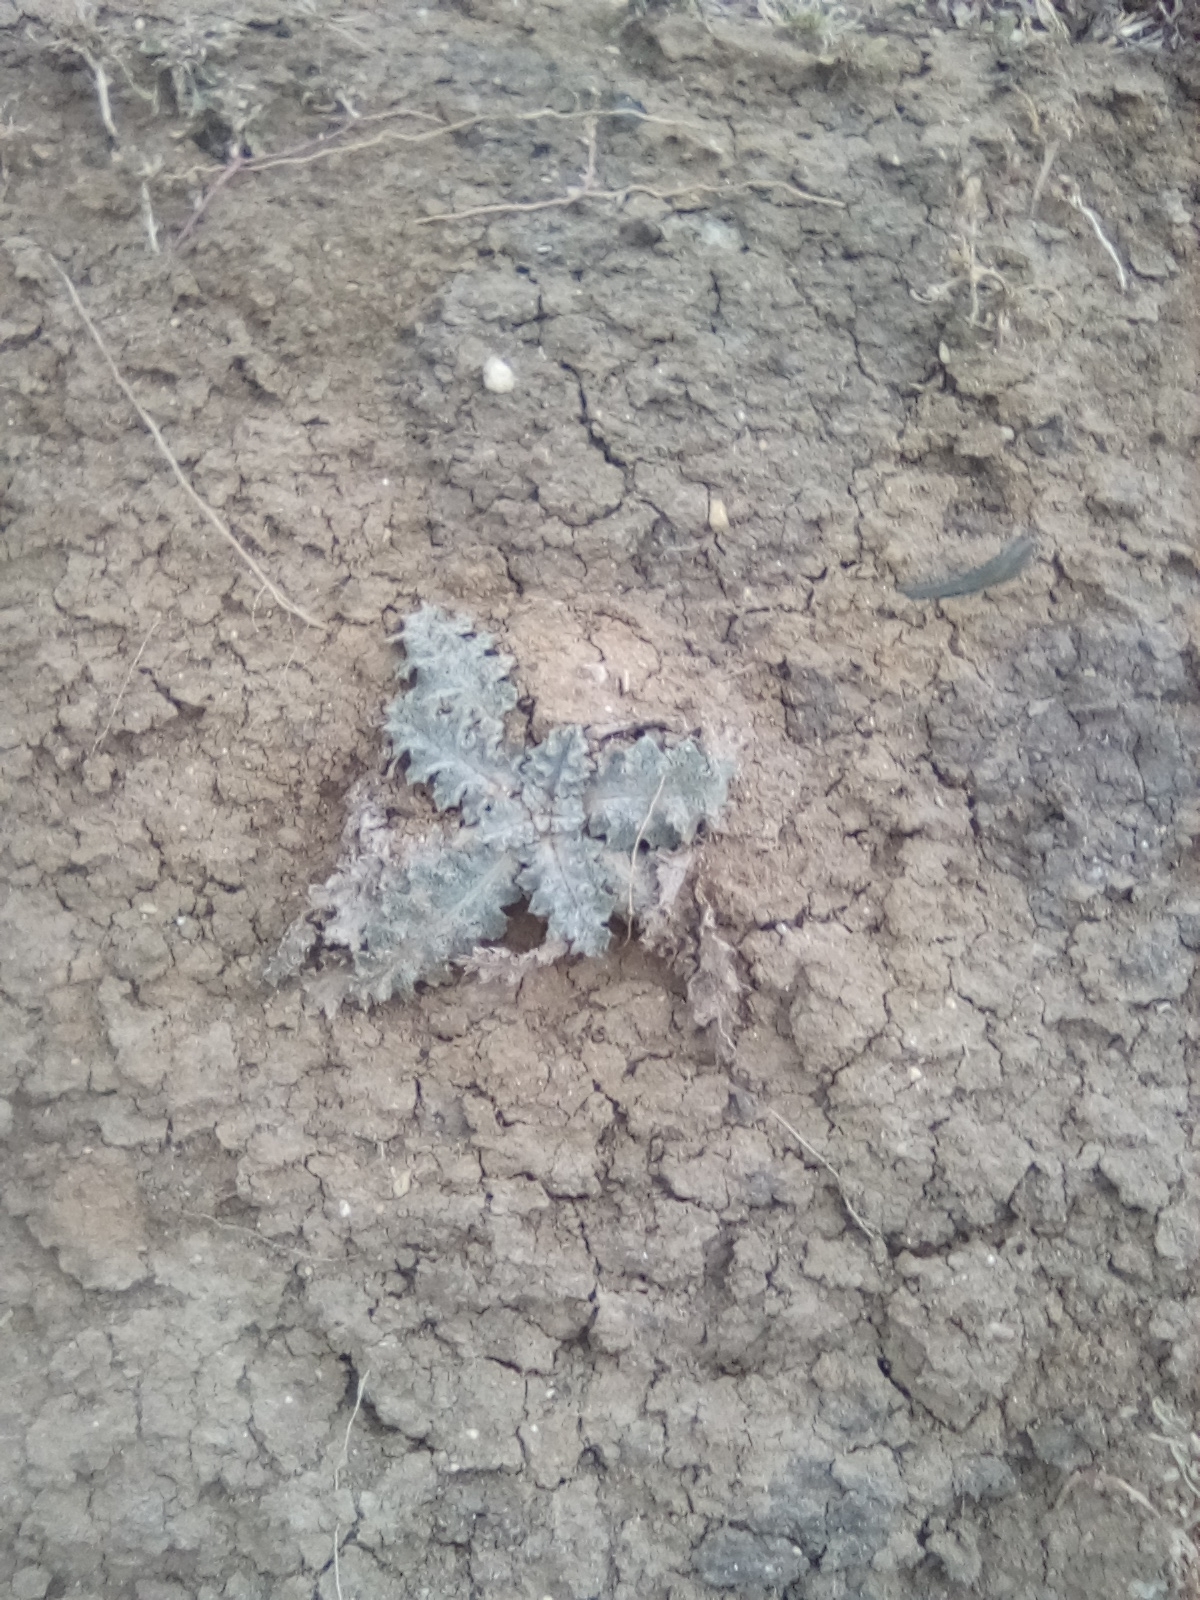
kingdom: Plantae
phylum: Tracheophyta
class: Magnoliopsida
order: Asterales
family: Asteraceae
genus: Onopordum
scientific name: Onopordum acanthium
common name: Scotch thistle
